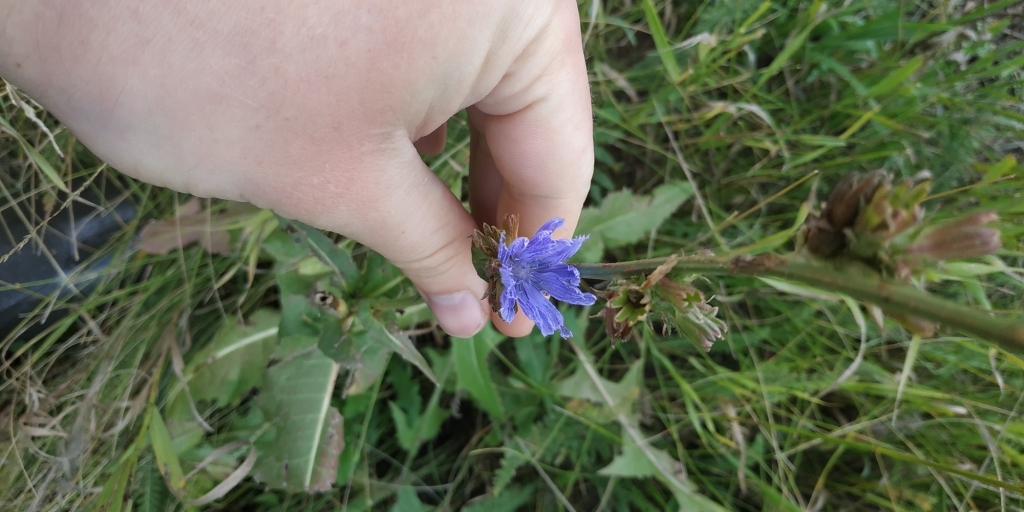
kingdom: Plantae
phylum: Tracheophyta
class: Magnoliopsida
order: Asterales
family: Asteraceae
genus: Cichorium
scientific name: Cichorium intybus
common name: Chicory
